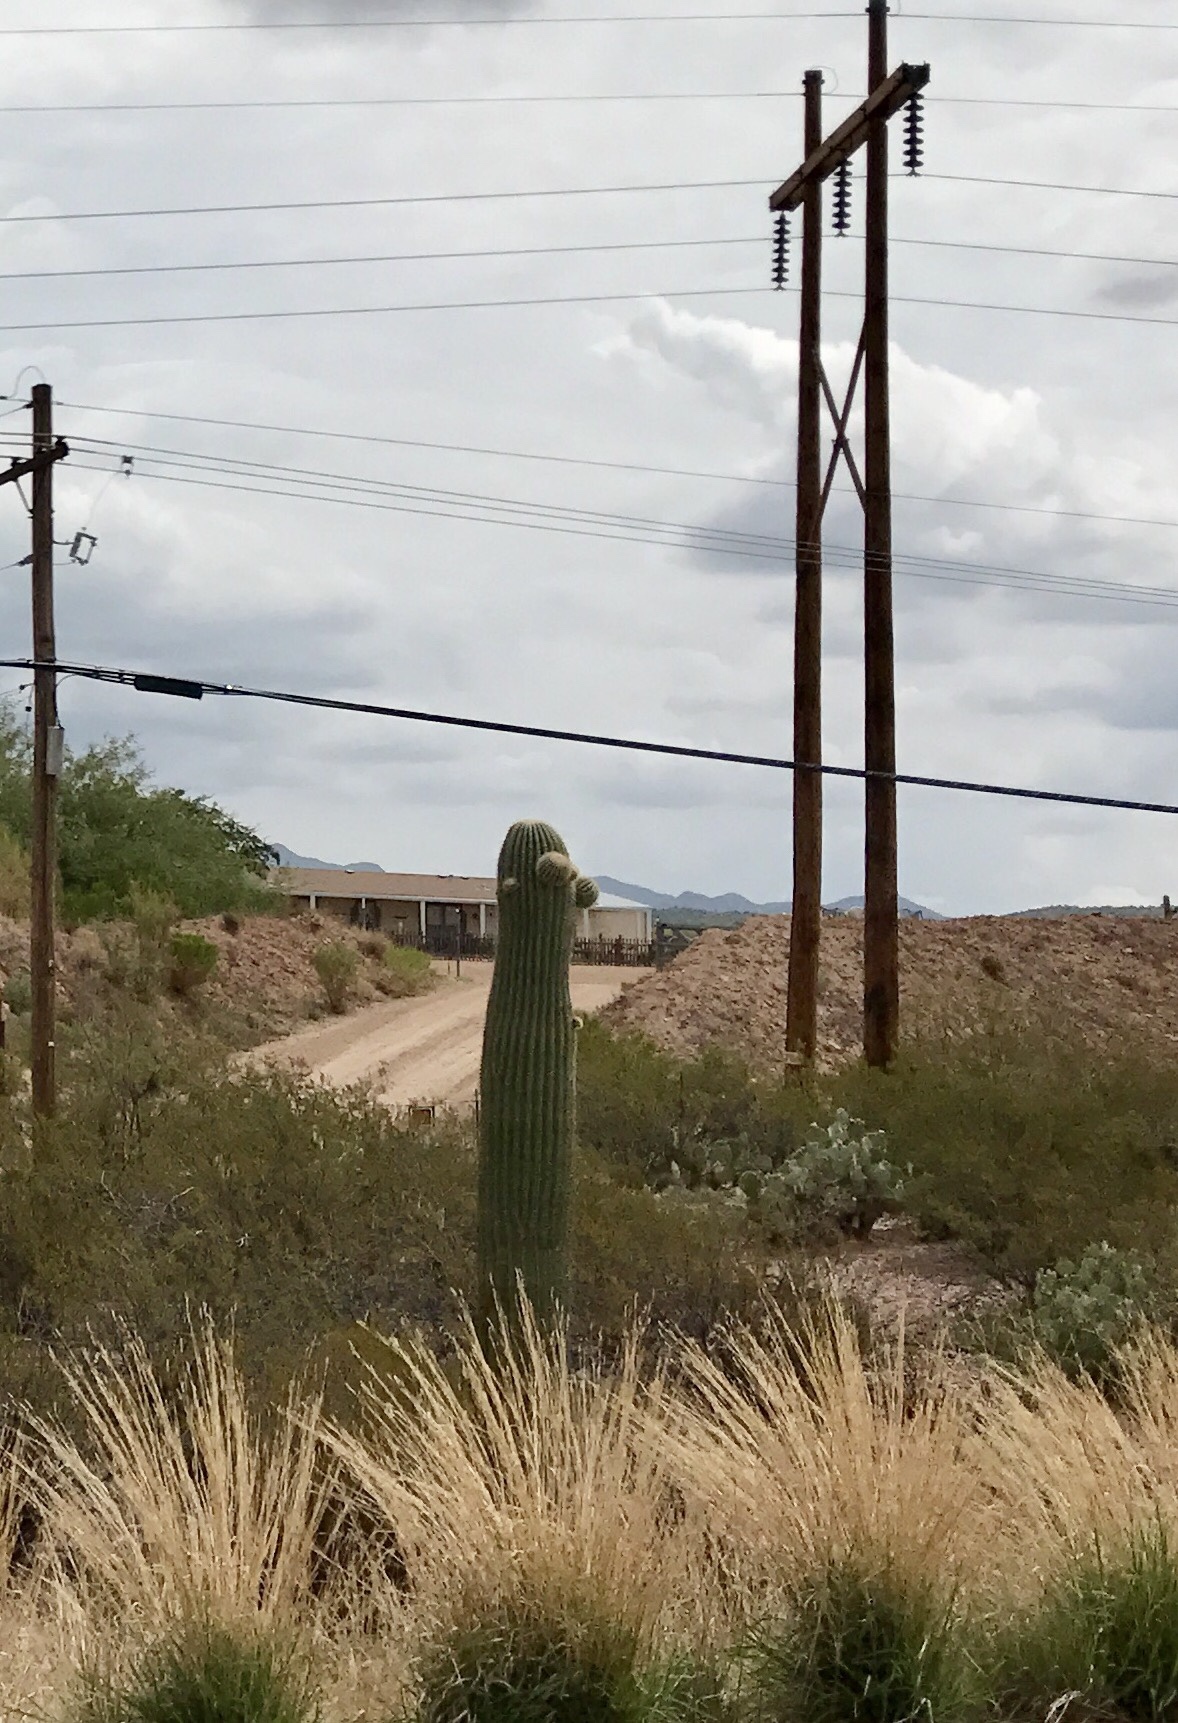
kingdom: Plantae
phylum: Tracheophyta
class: Magnoliopsida
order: Caryophyllales
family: Cactaceae
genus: Carnegiea
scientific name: Carnegiea gigantea
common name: Saguaro
